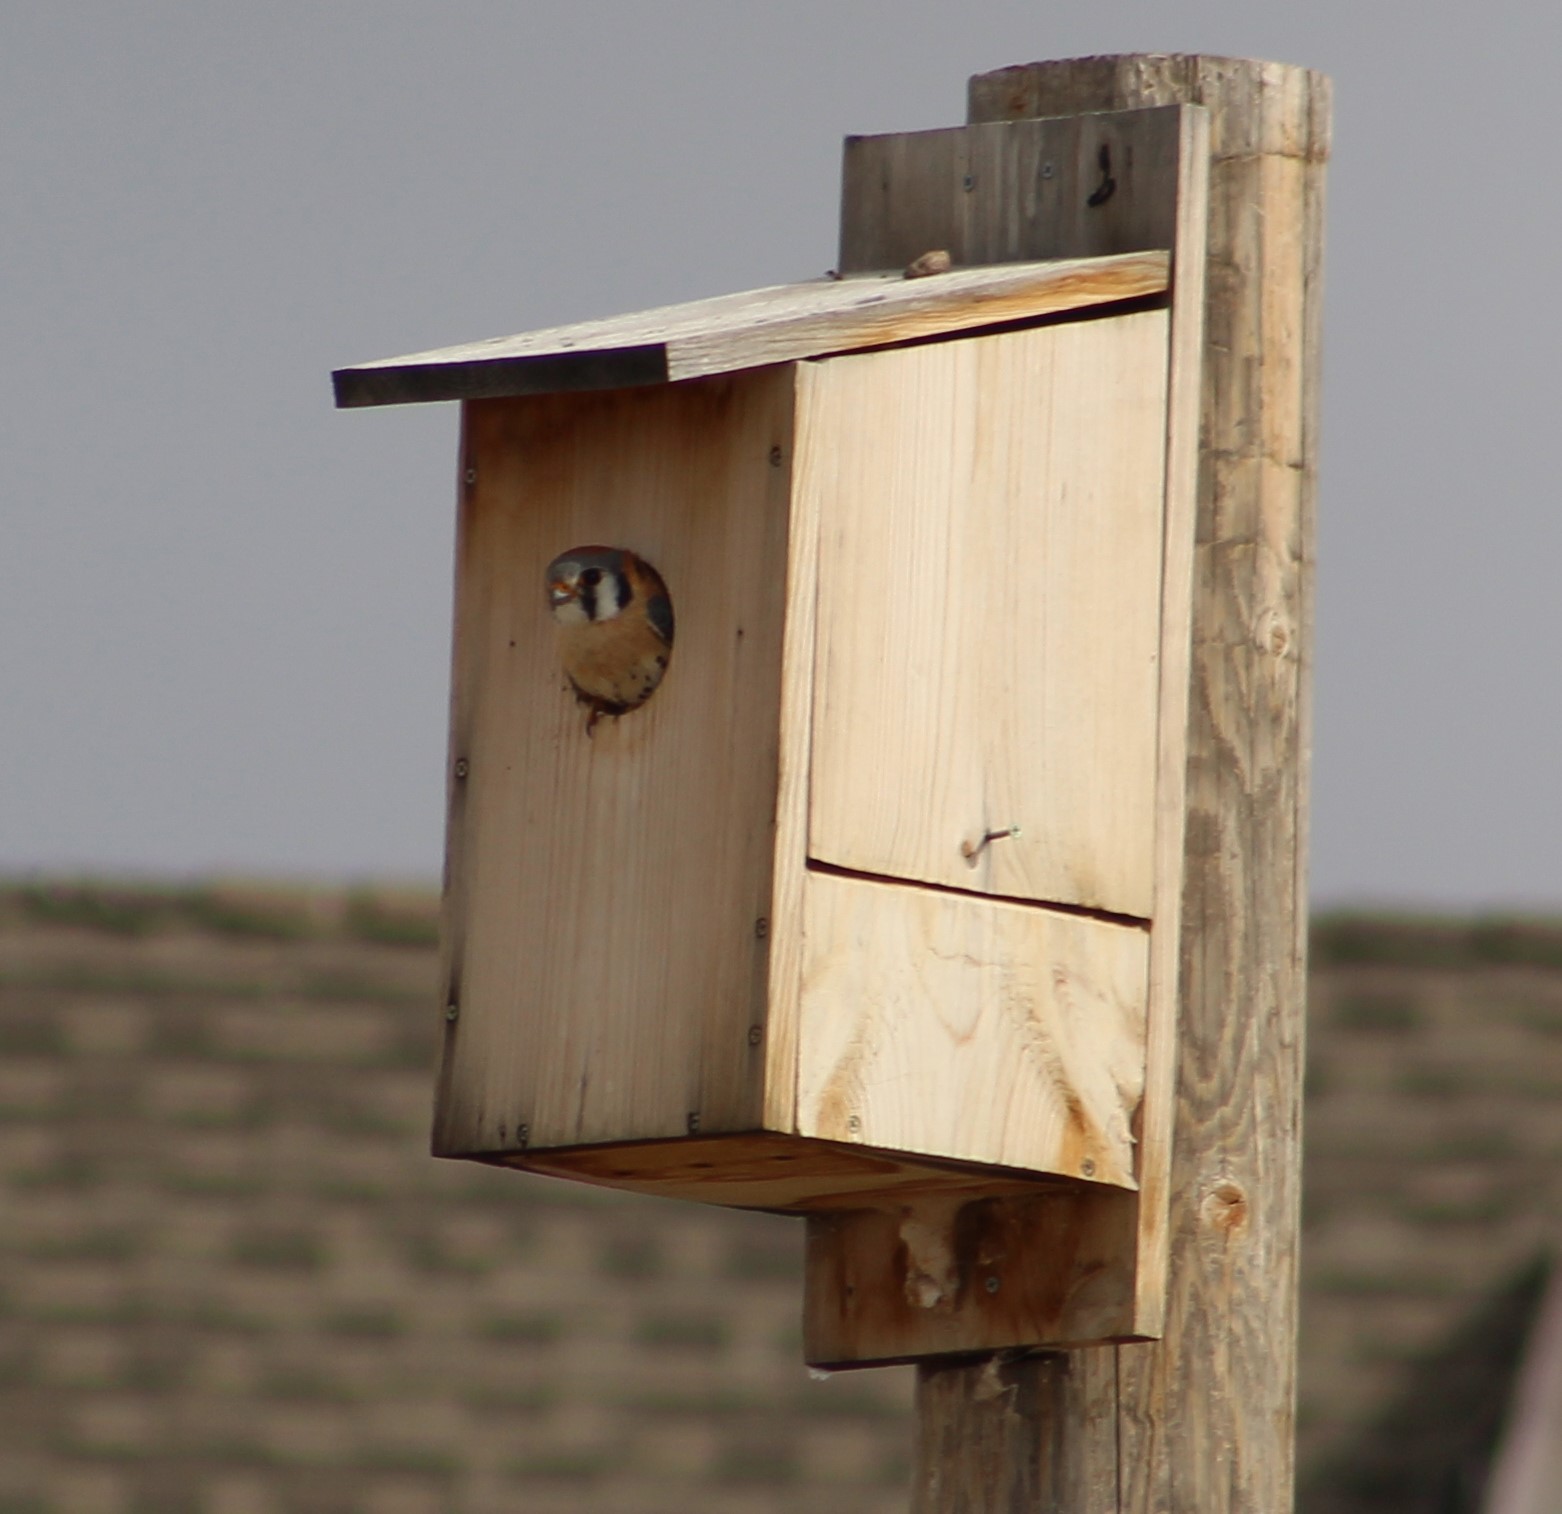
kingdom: Animalia
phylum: Chordata
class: Aves
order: Falconiformes
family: Falconidae
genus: Falco
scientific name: Falco sparverius
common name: American kestrel
